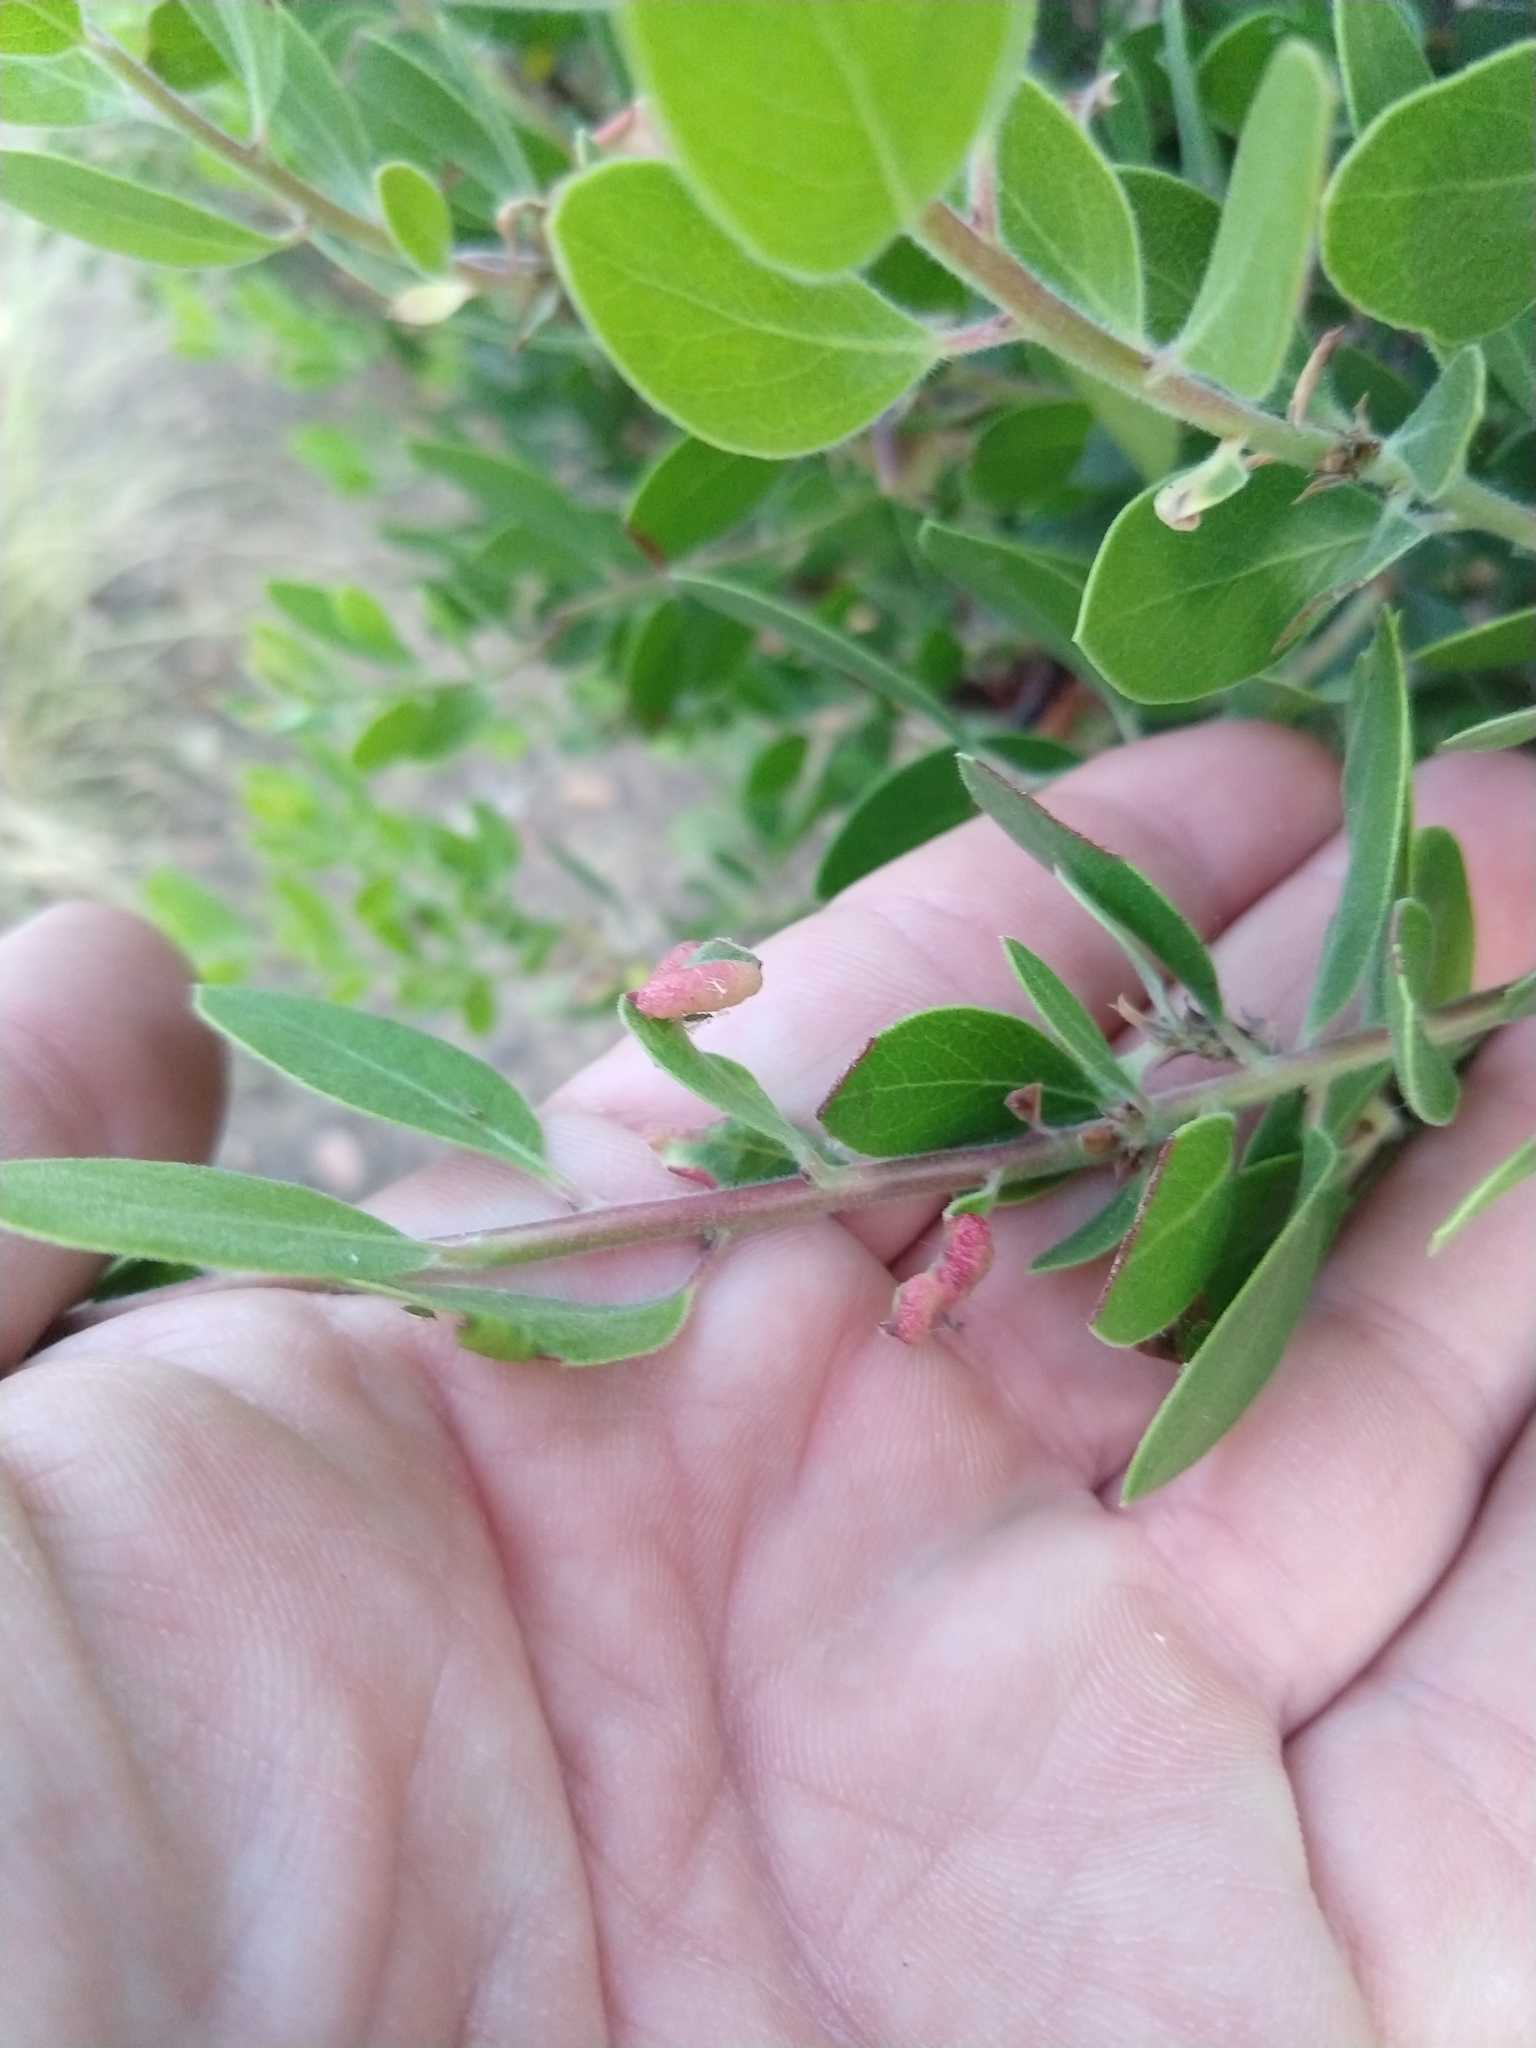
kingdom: Animalia
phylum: Arthropoda
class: Insecta
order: Hemiptera
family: Aphididae
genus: Tamalia
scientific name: Tamalia coweni
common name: Manzanita leafgall aphid
